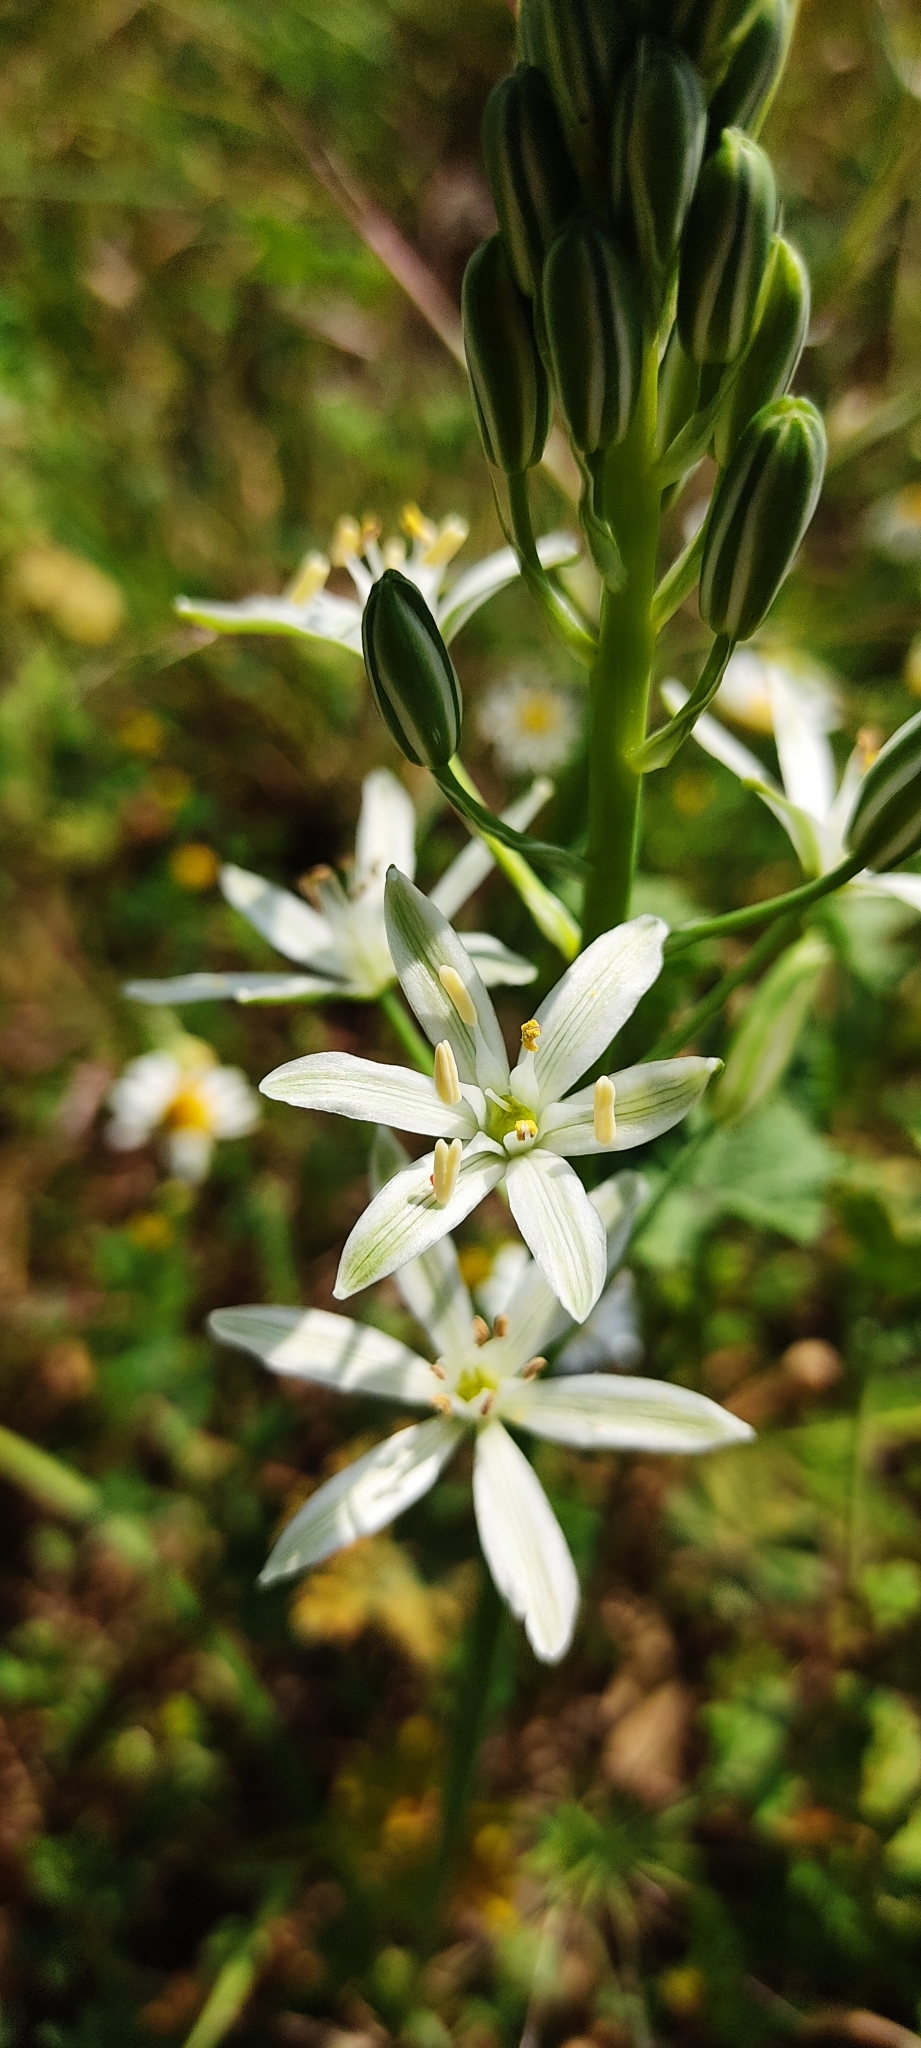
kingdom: Plantae
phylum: Tracheophyta
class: Liliopsida
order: Asparagales
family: Asparagaceae
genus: Ornithogalum
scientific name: Ornithogalum narbonense
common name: Bath-asparagus
